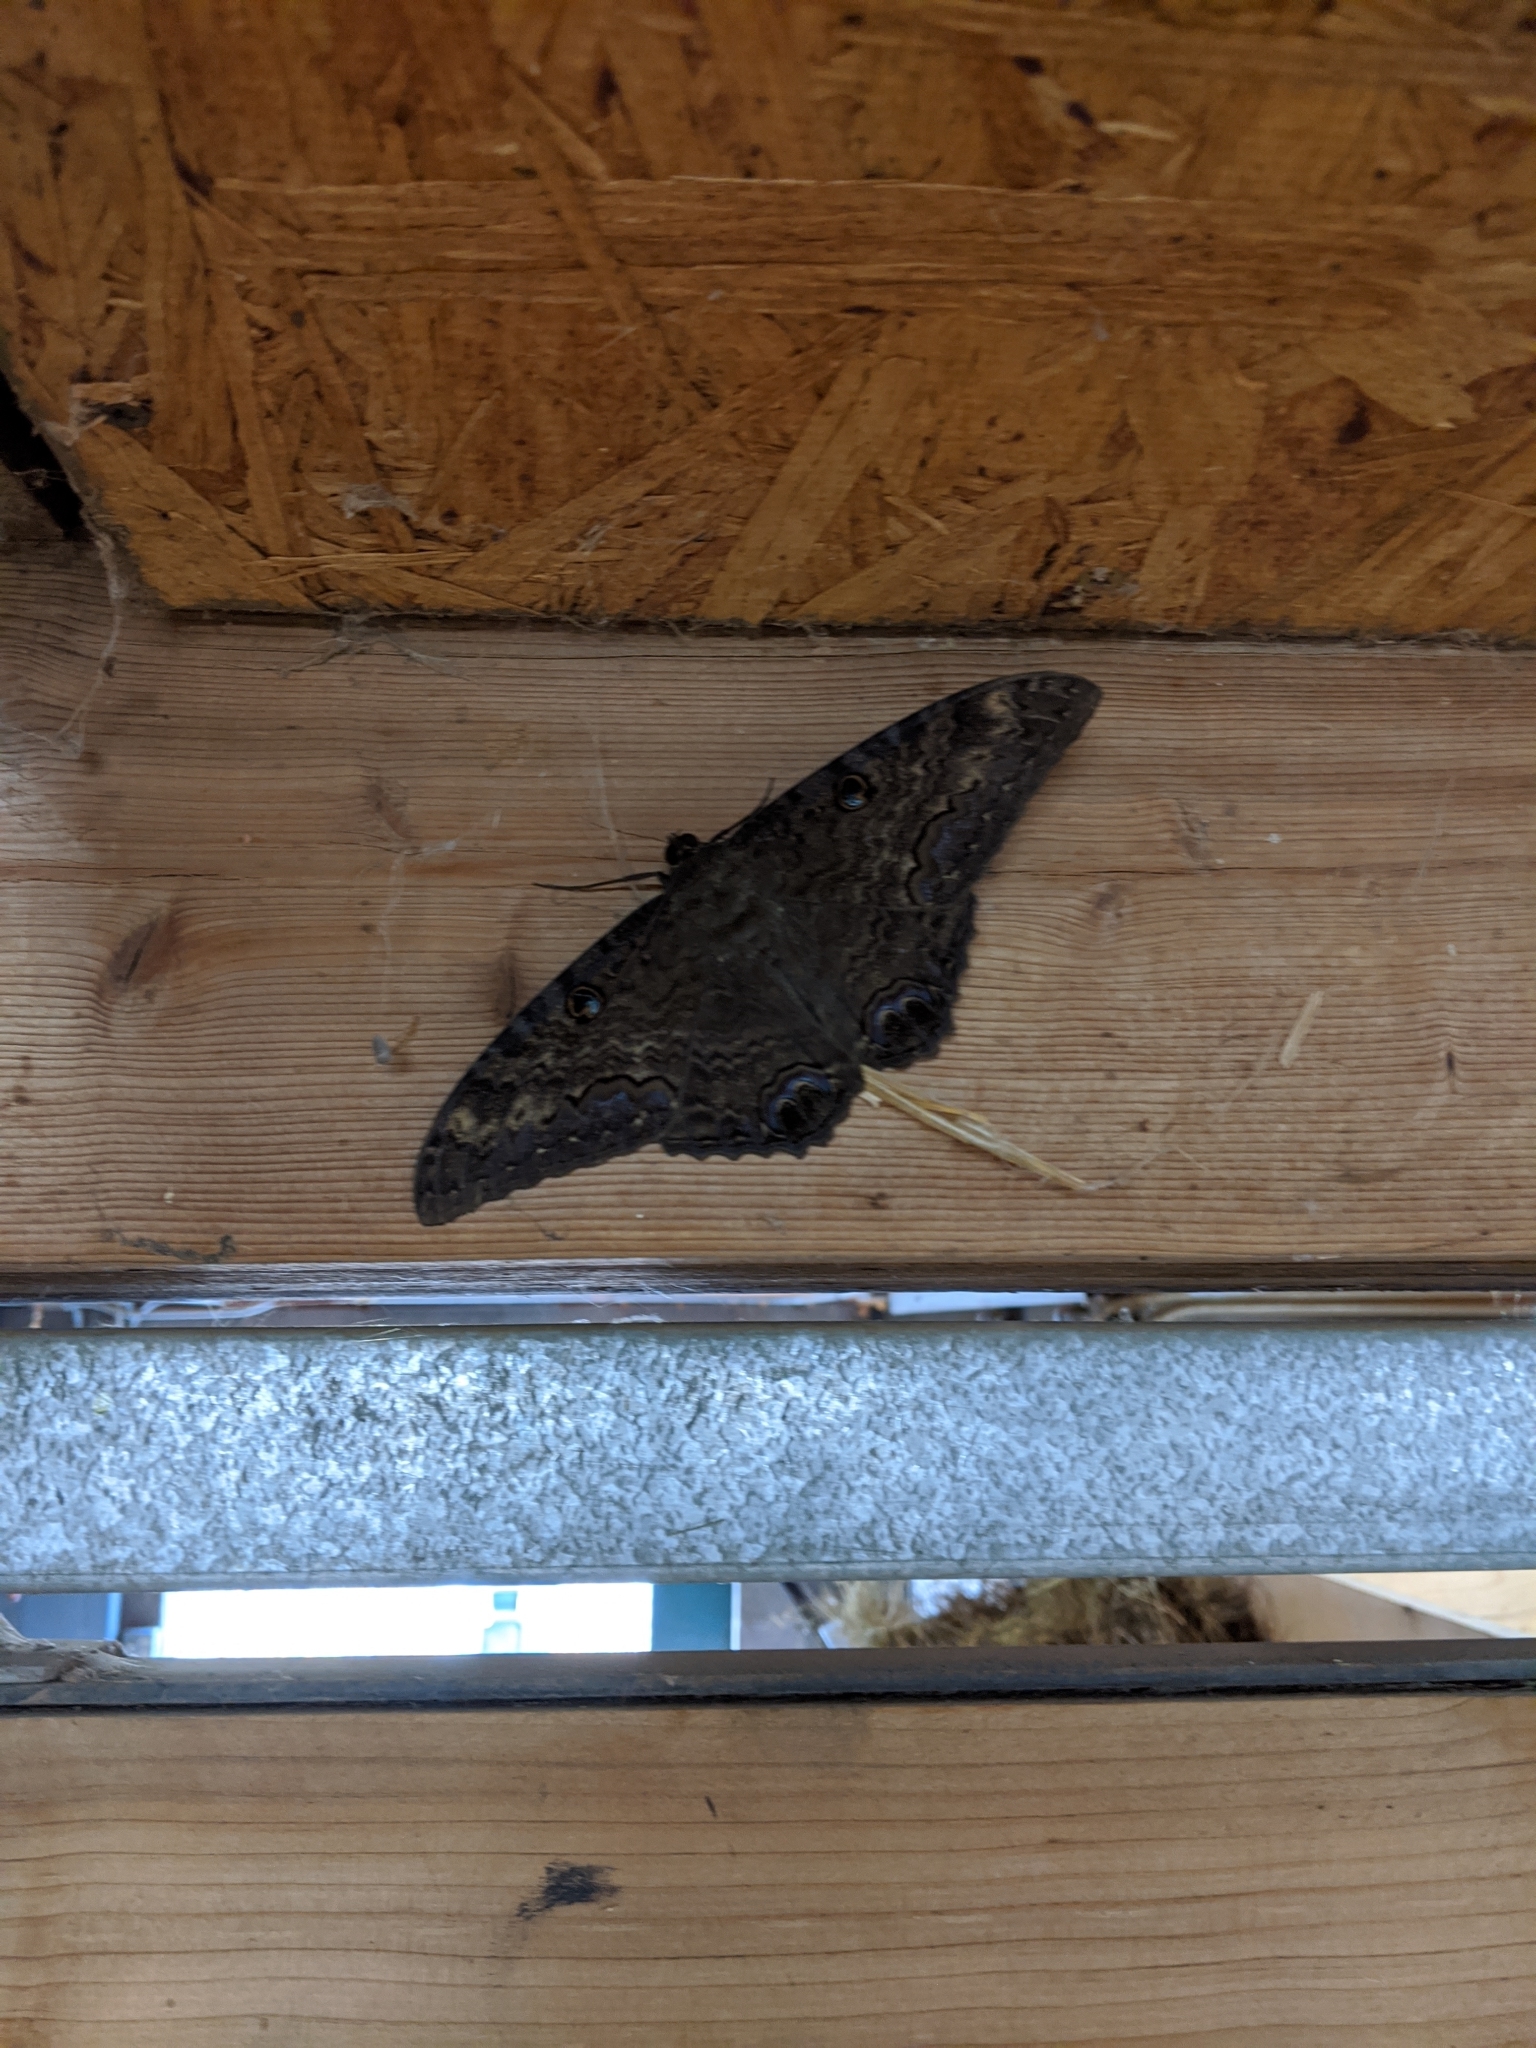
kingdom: Animalia
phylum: Arthropoda
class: Insecta
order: Lepidoptera
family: Erebidae
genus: Ascalapha
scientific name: Ascalapha odorata
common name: Black witch
